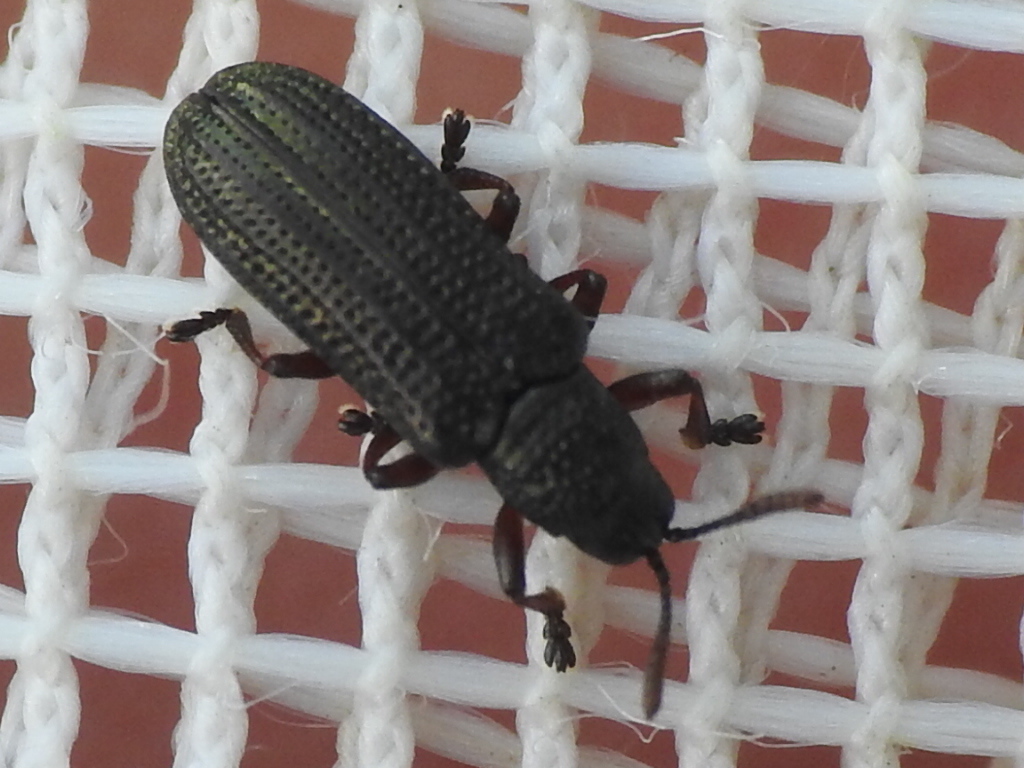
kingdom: Animalia
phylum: Arthropoda
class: Insecta
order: Coleoptera
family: Chrysomelidae
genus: Anisostena
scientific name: Anisostena funesta
